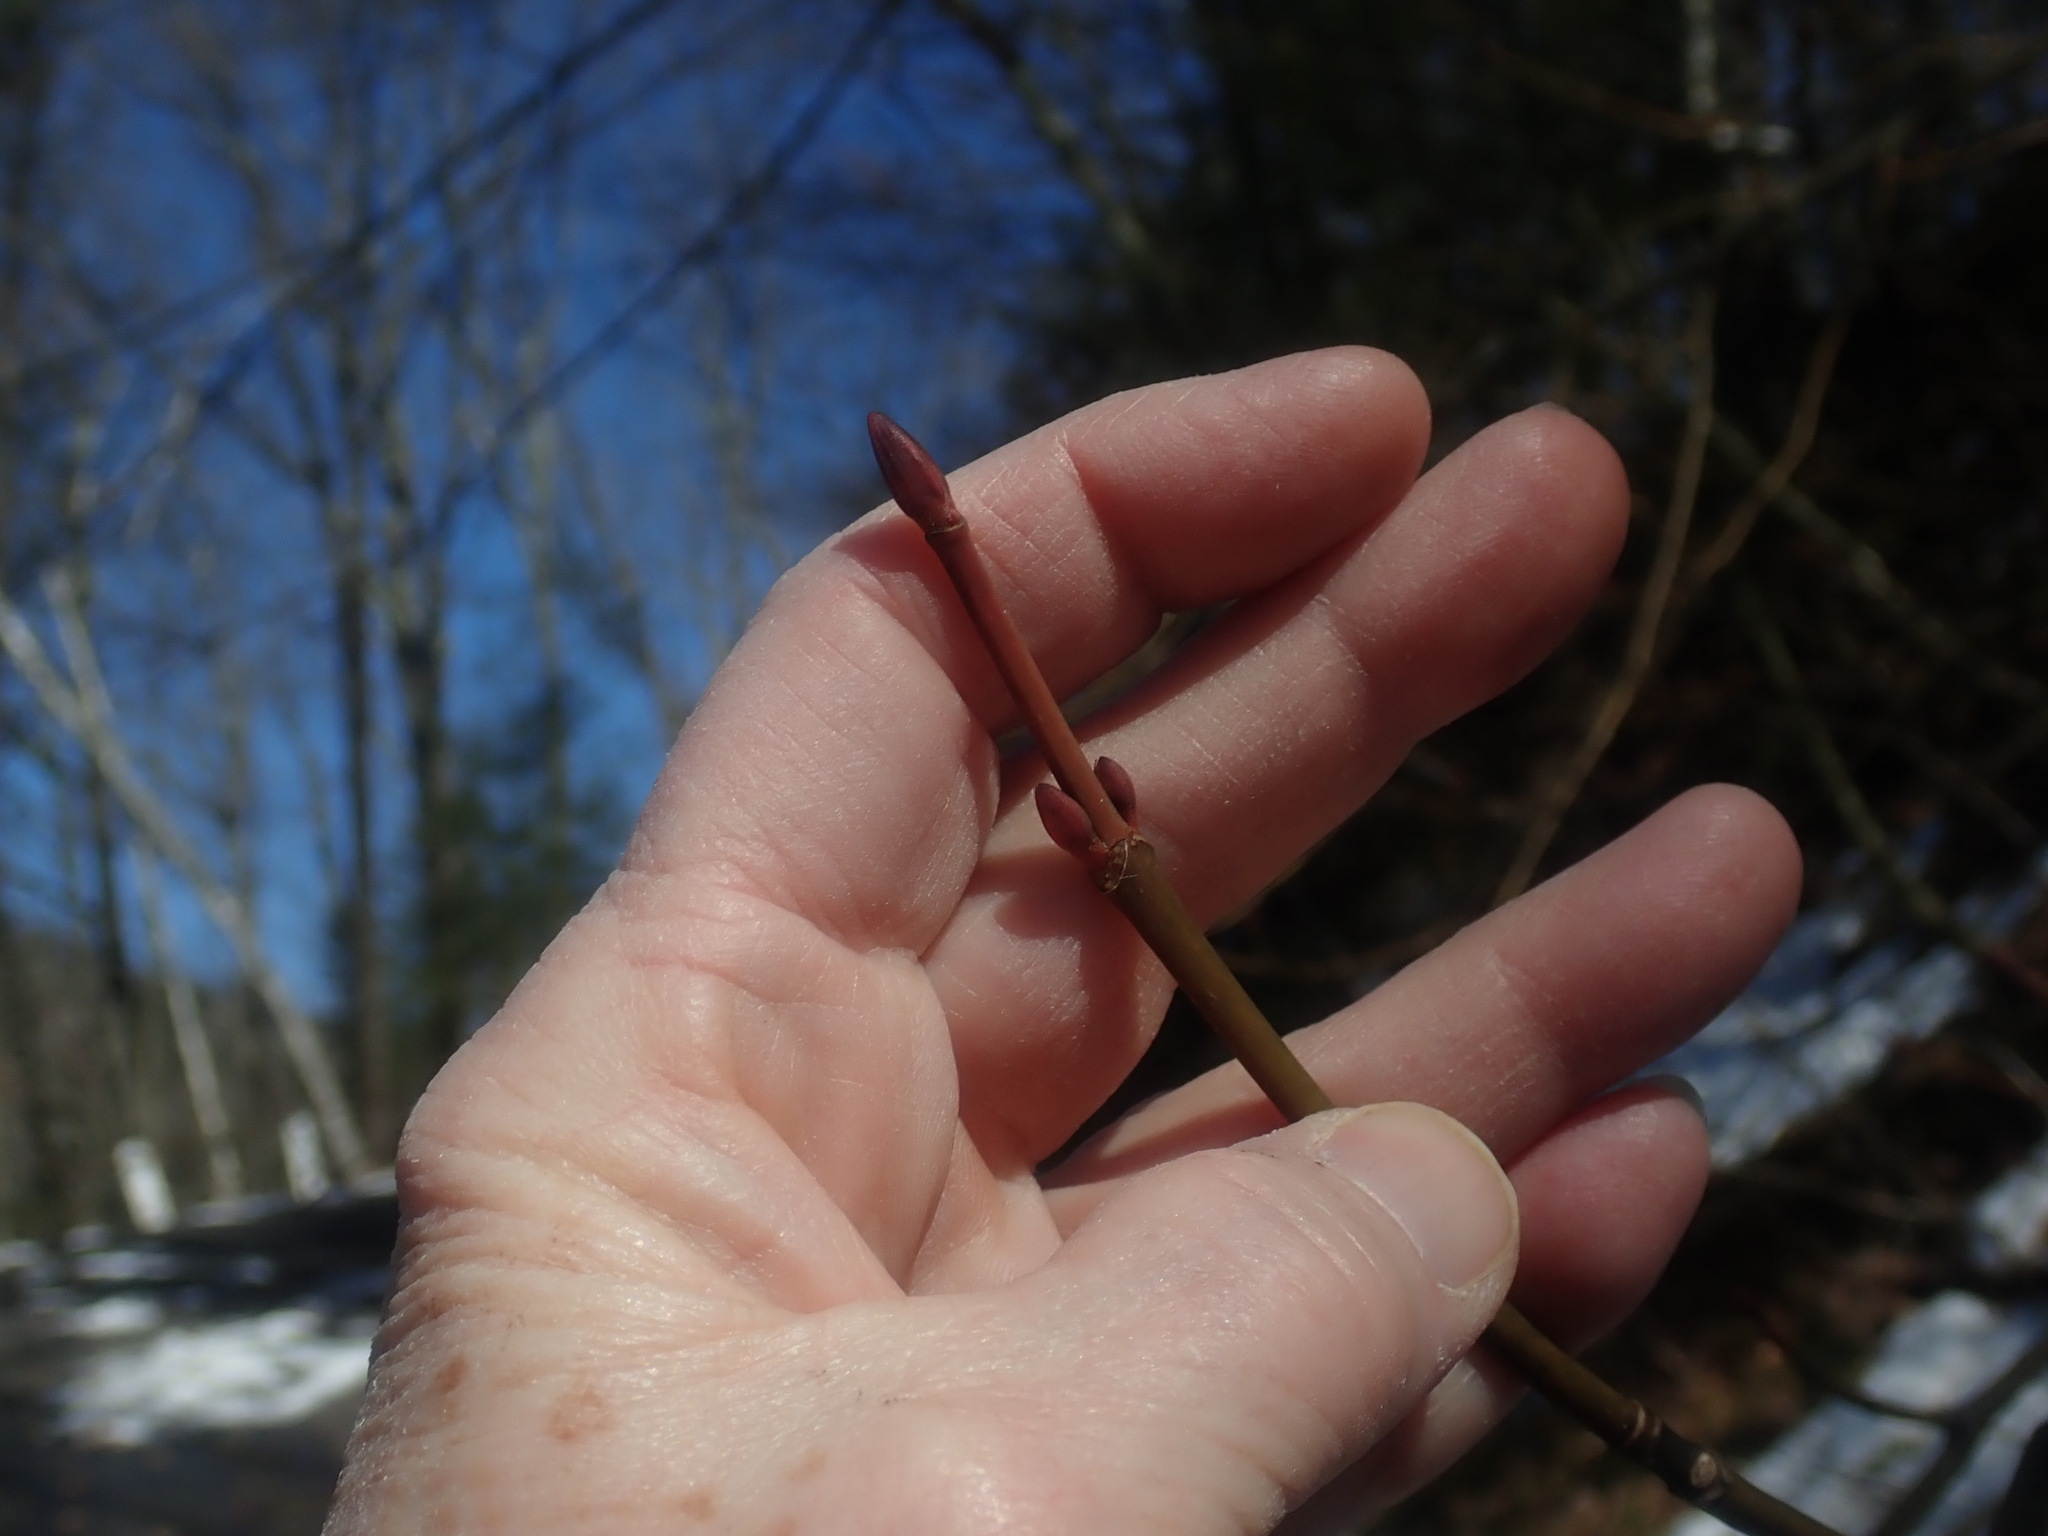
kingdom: Plantae
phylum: Tracheophyta
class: Magnoliopsida
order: Sapindales
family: Sapindaceae
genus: Acer
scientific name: Acer pensylvanicum
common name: Moosewood
